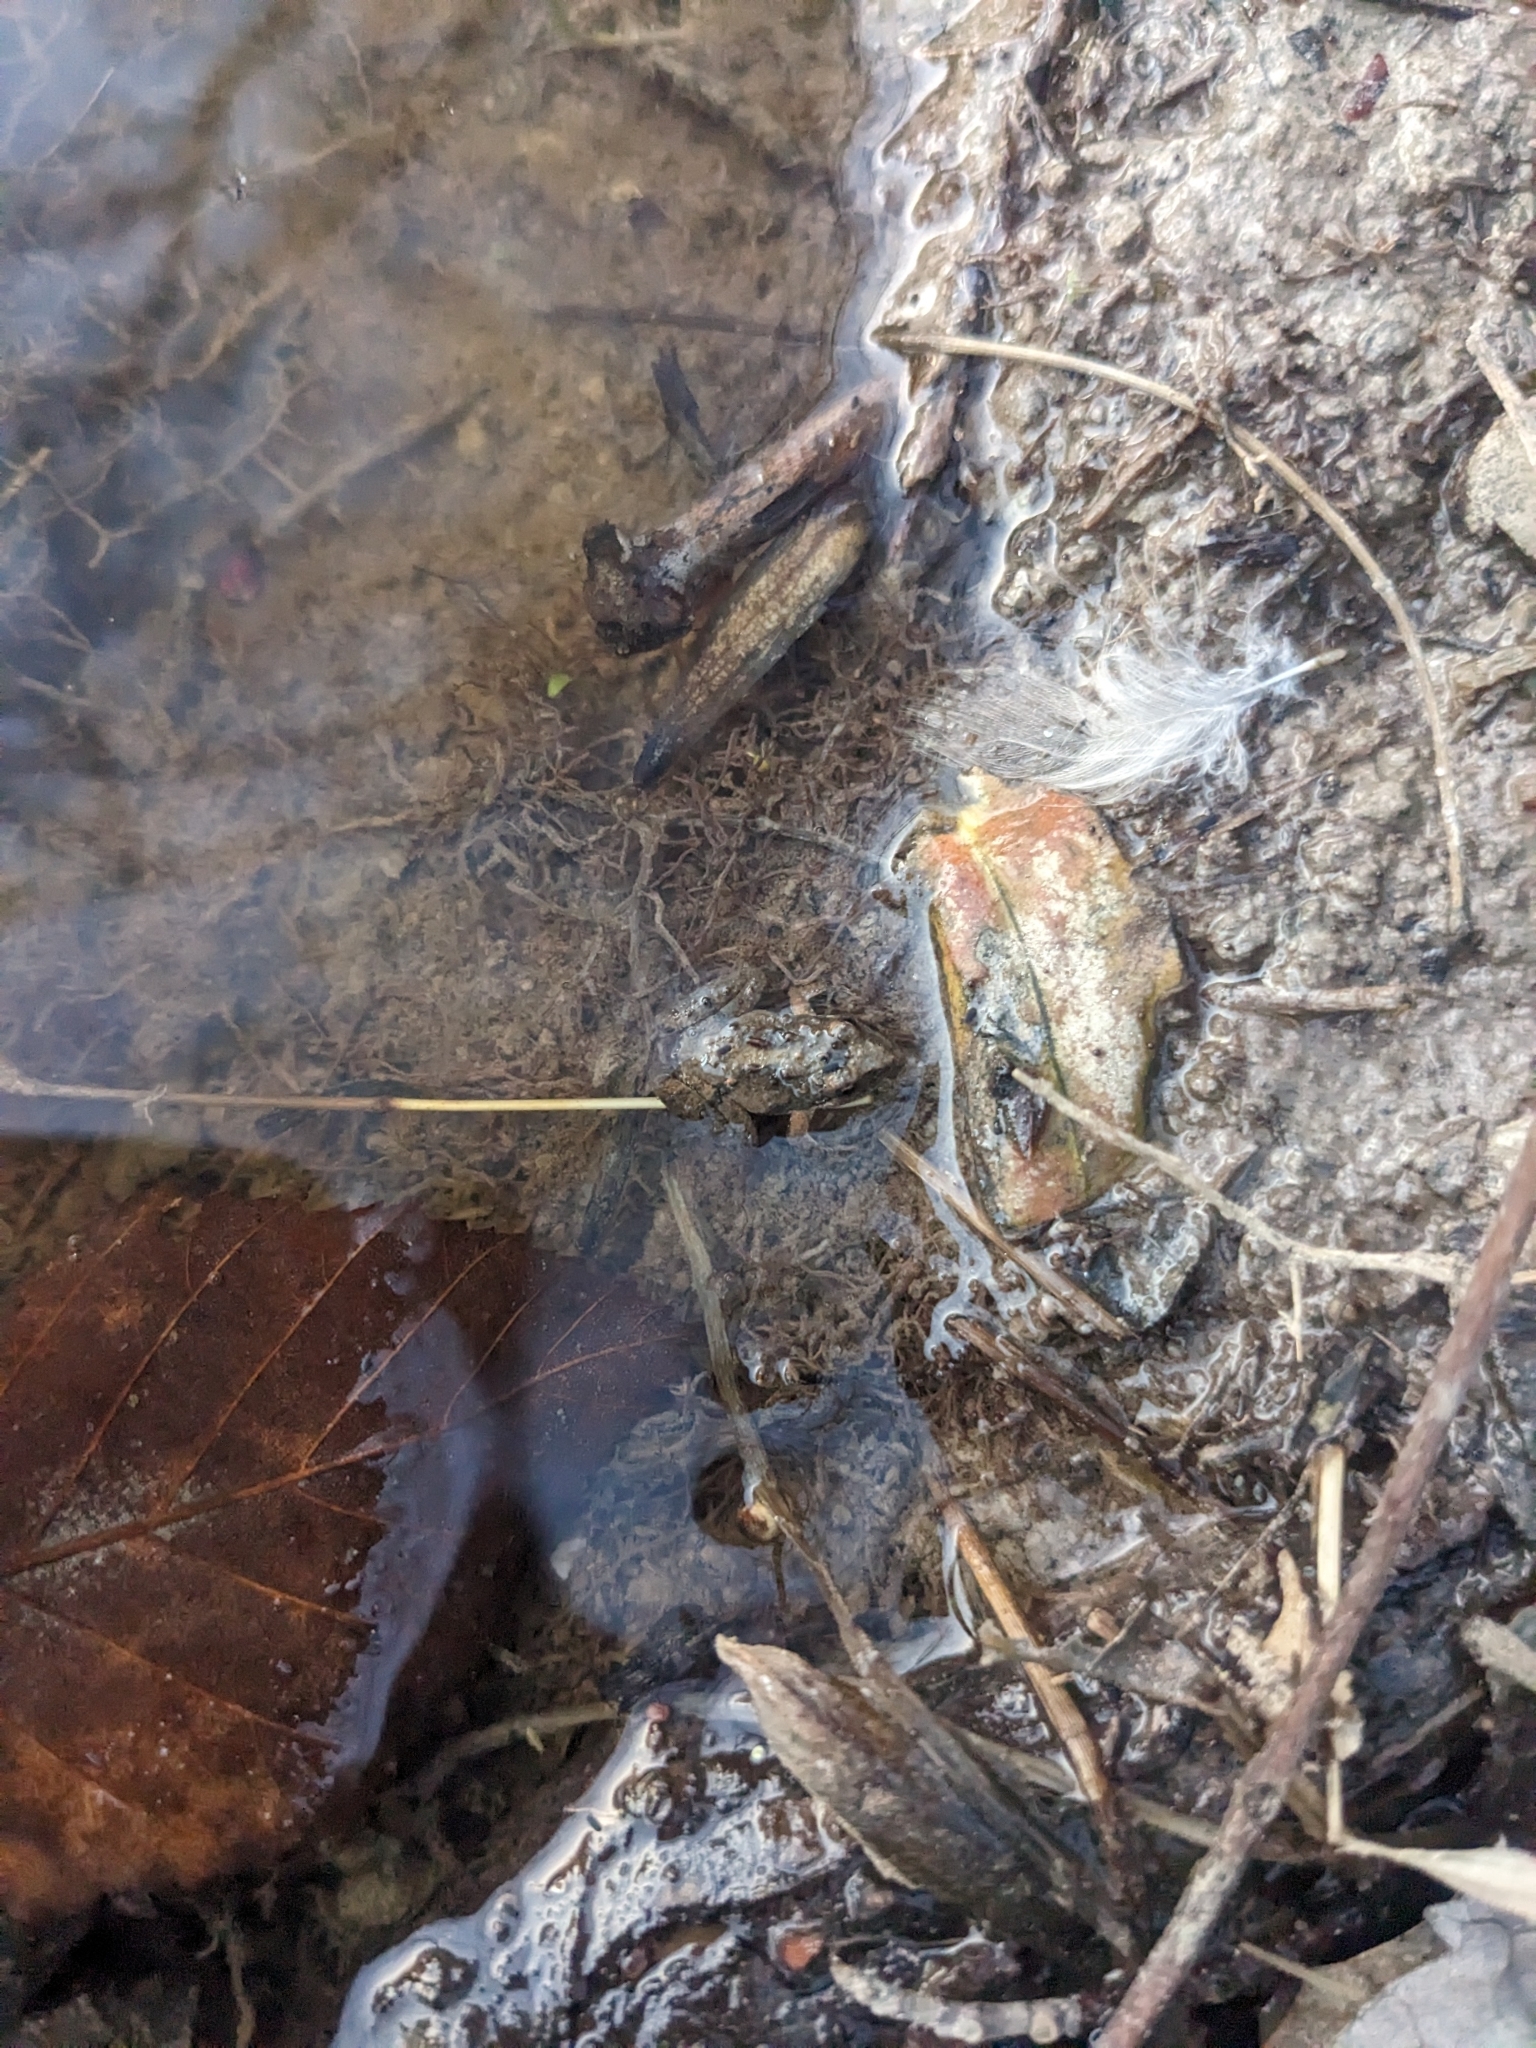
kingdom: Animalia
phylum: Chordata
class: Amphibia
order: Anura
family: Hylidae
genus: Acris
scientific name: Acris crepitans
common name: Northern cricket frog
